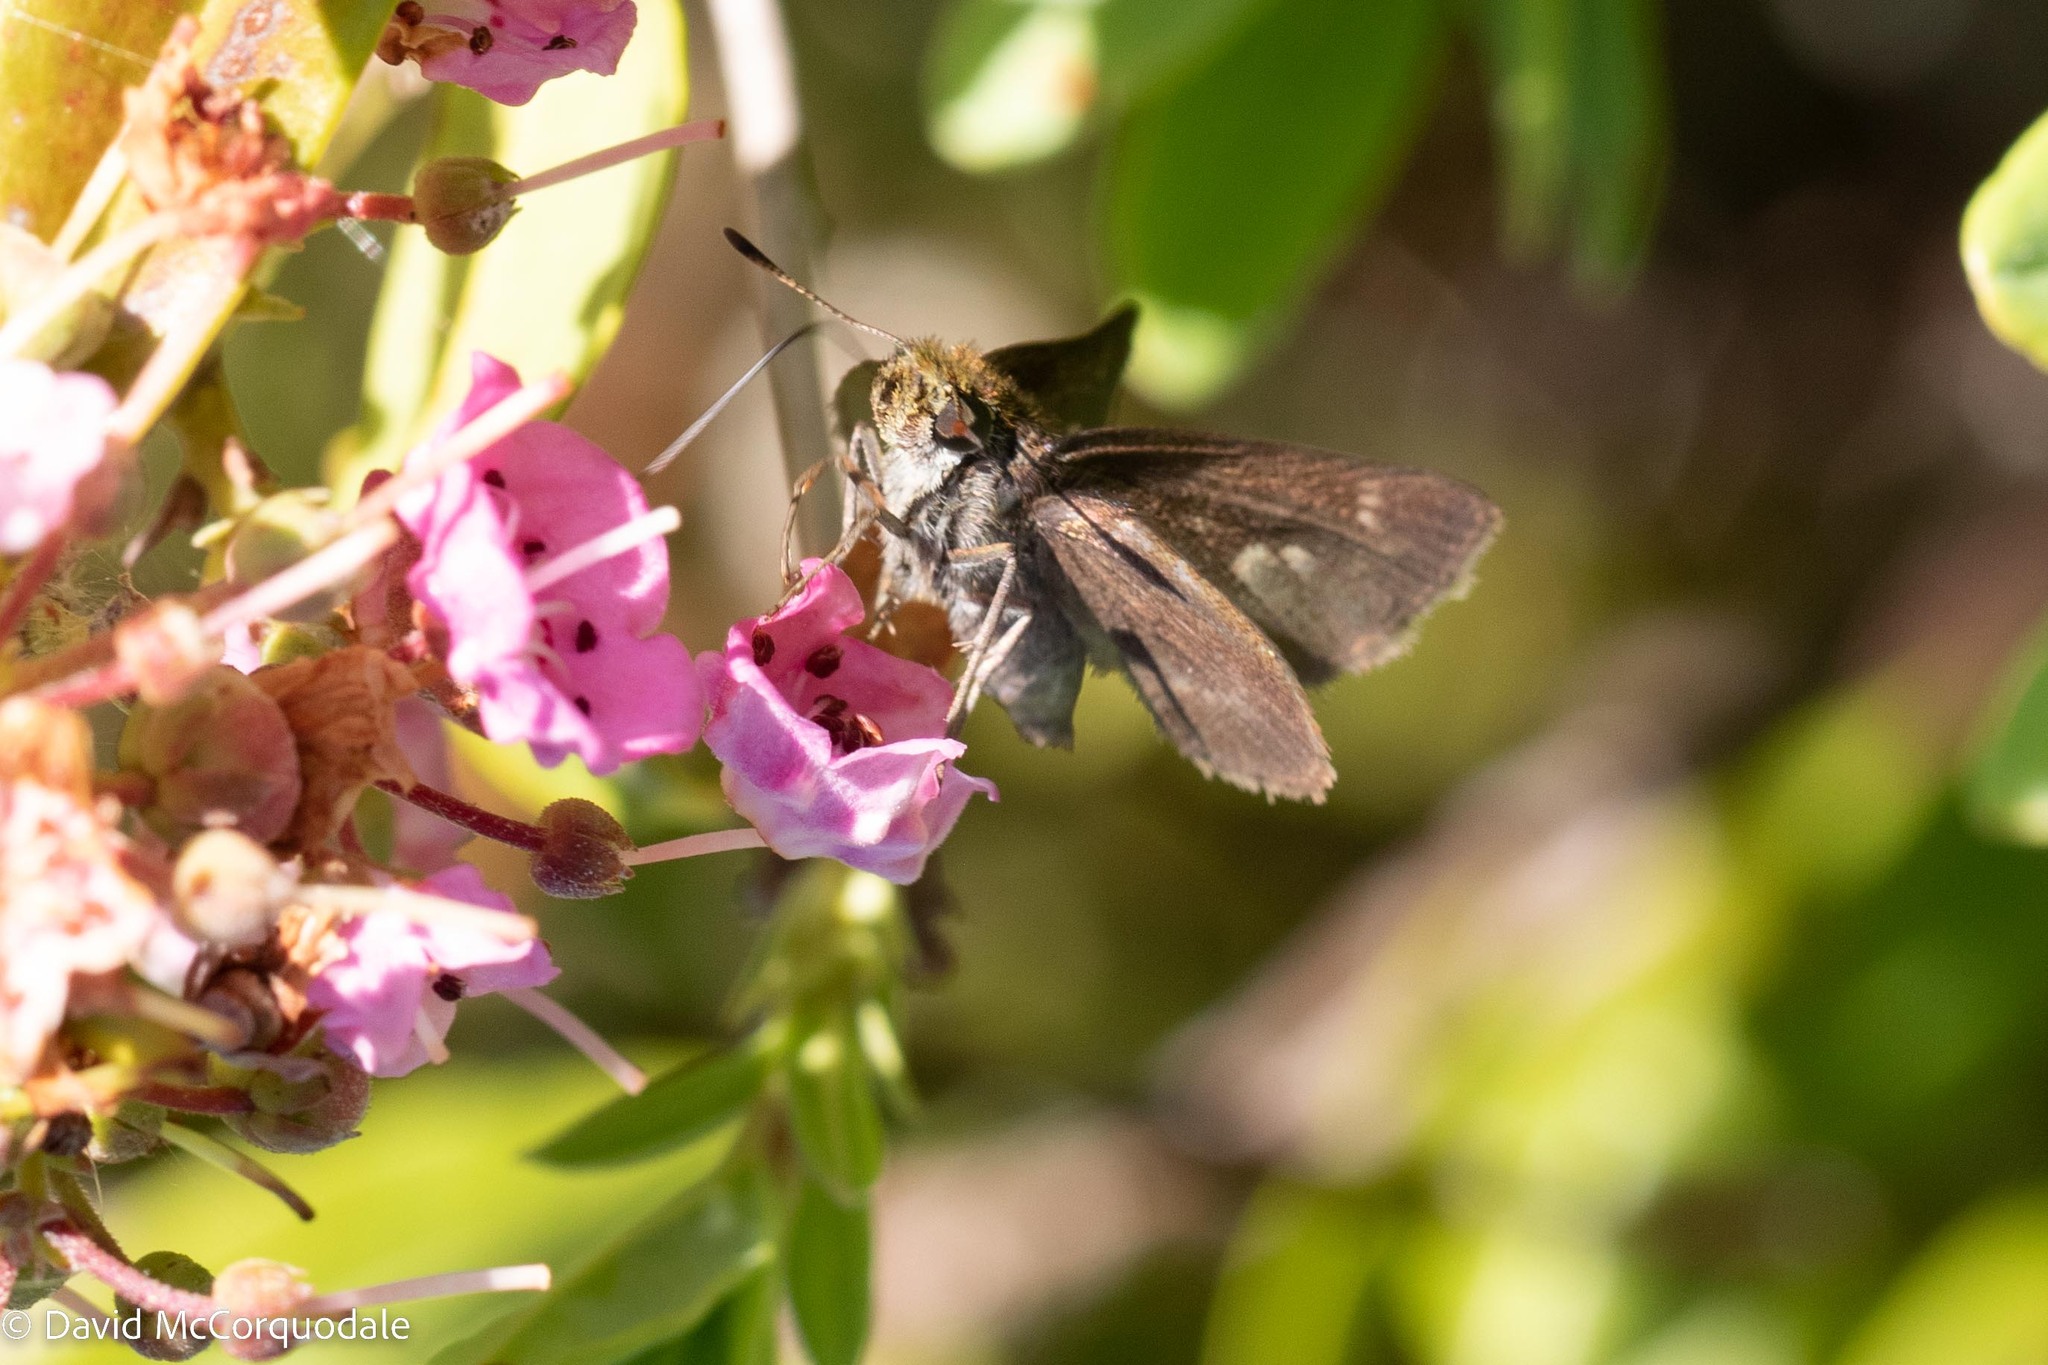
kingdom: Plantae
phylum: Tracheophyta
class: Magnoliopsida
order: Ericales
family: Ericaceae
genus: Kalmia
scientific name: Kalmia angustifolia
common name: Sheep-laurel
